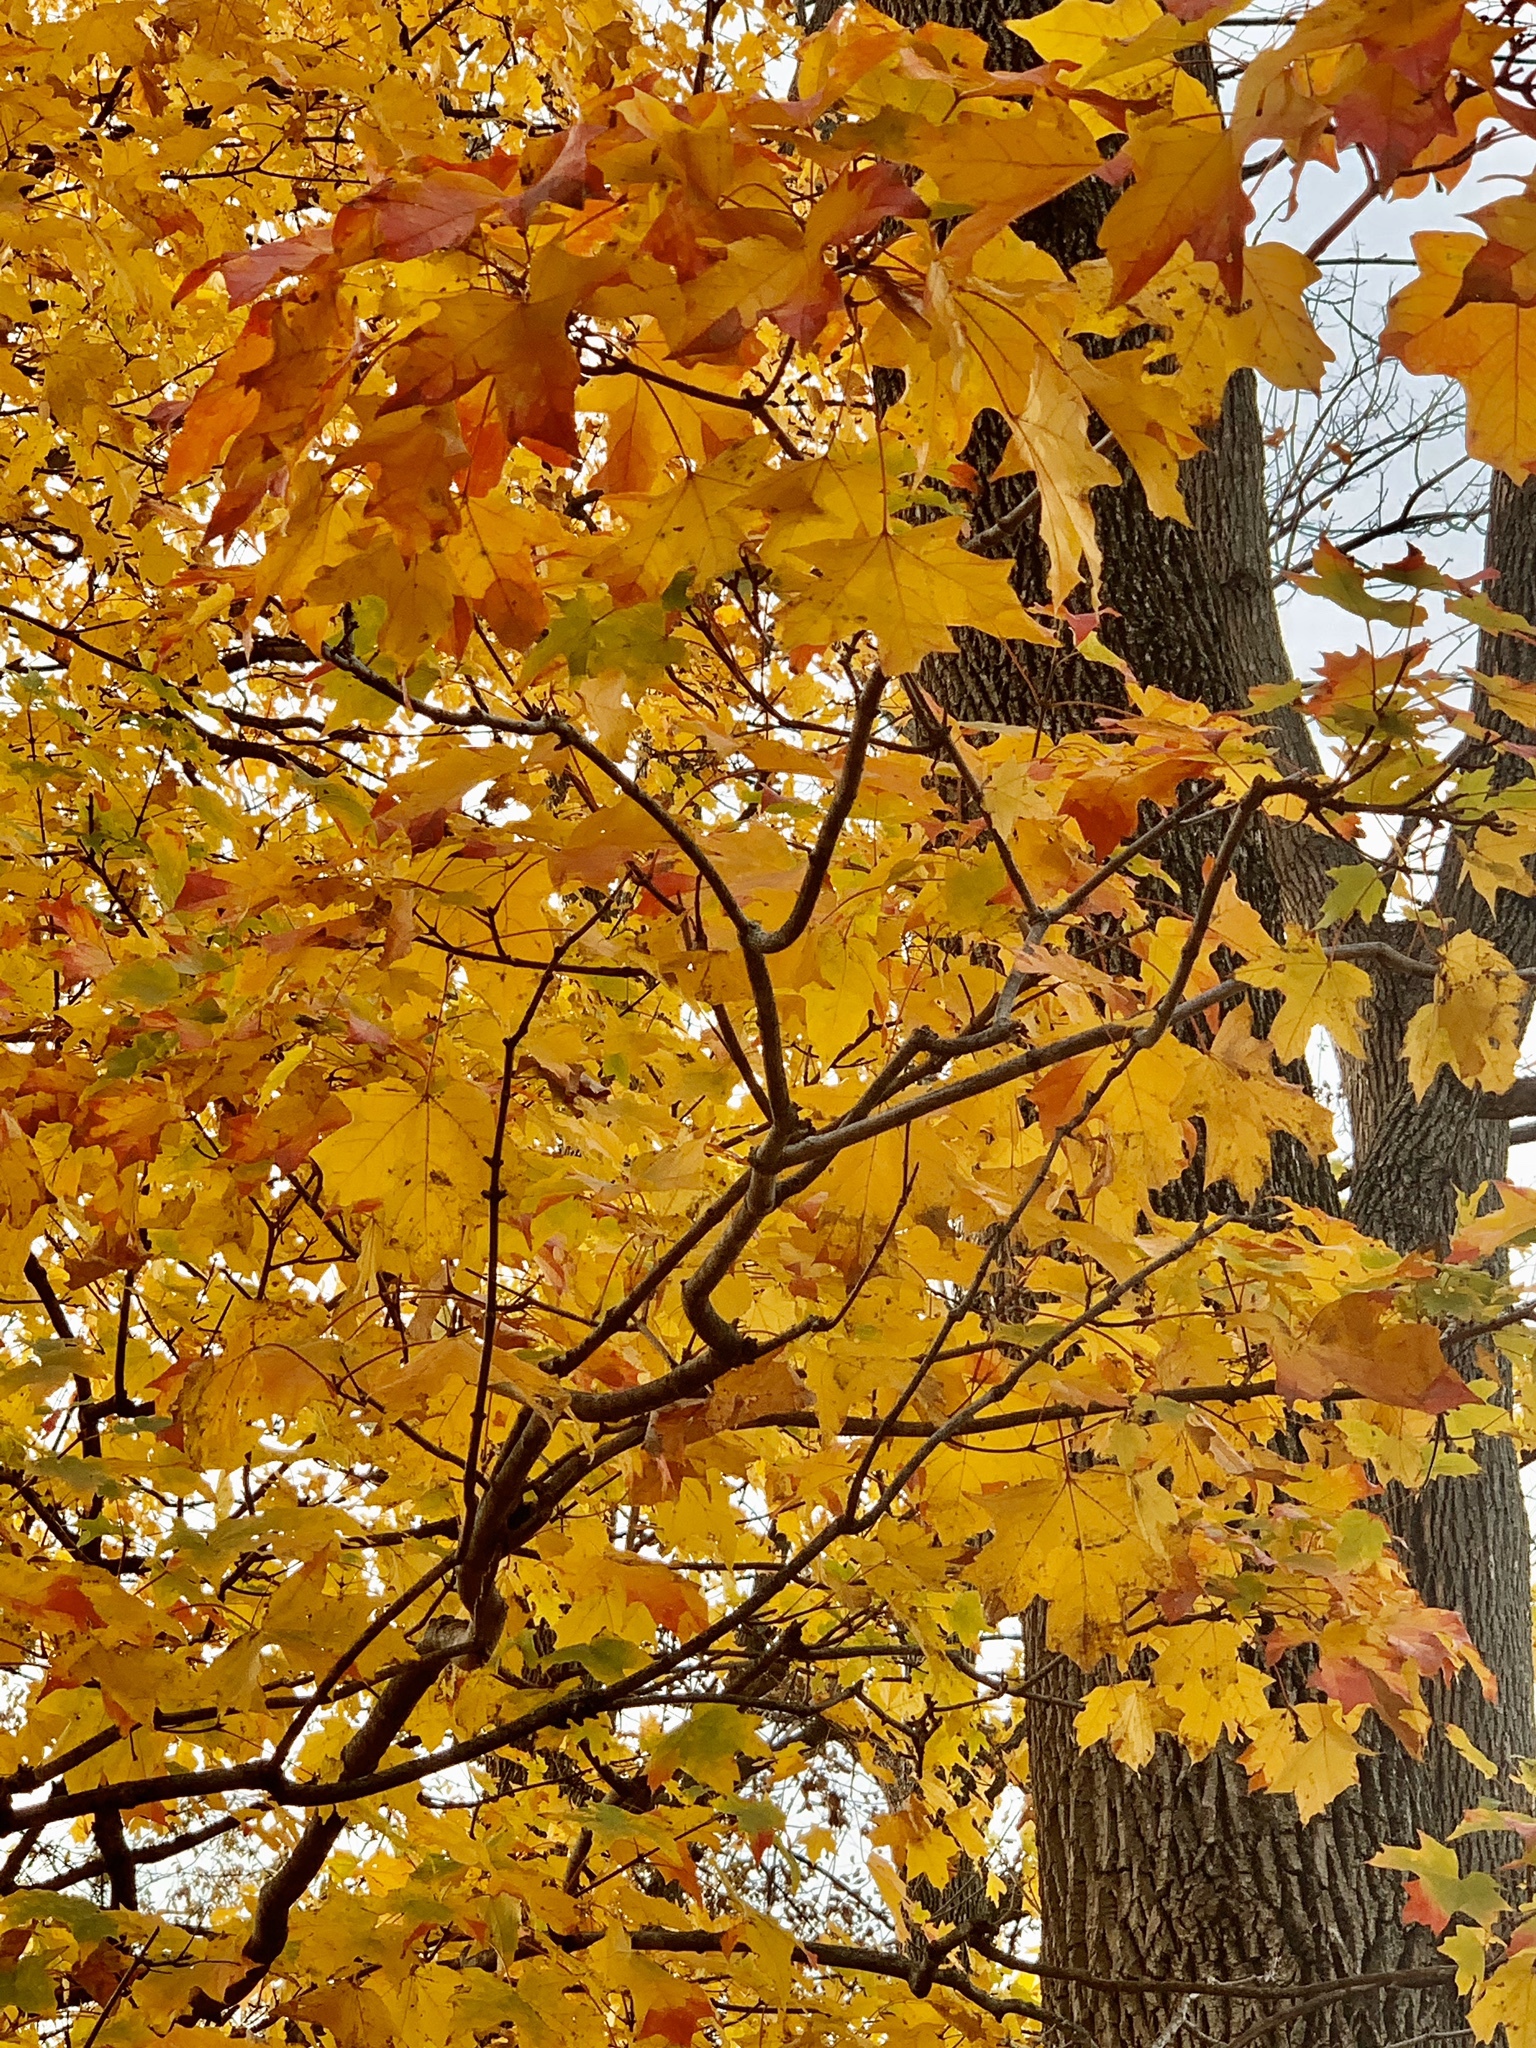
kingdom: Plantae
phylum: Tracheophyta
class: Magnoliopsida
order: Sapindales
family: Sapindaceae
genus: Acer
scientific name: Acer saccharum
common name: Sugar maple
